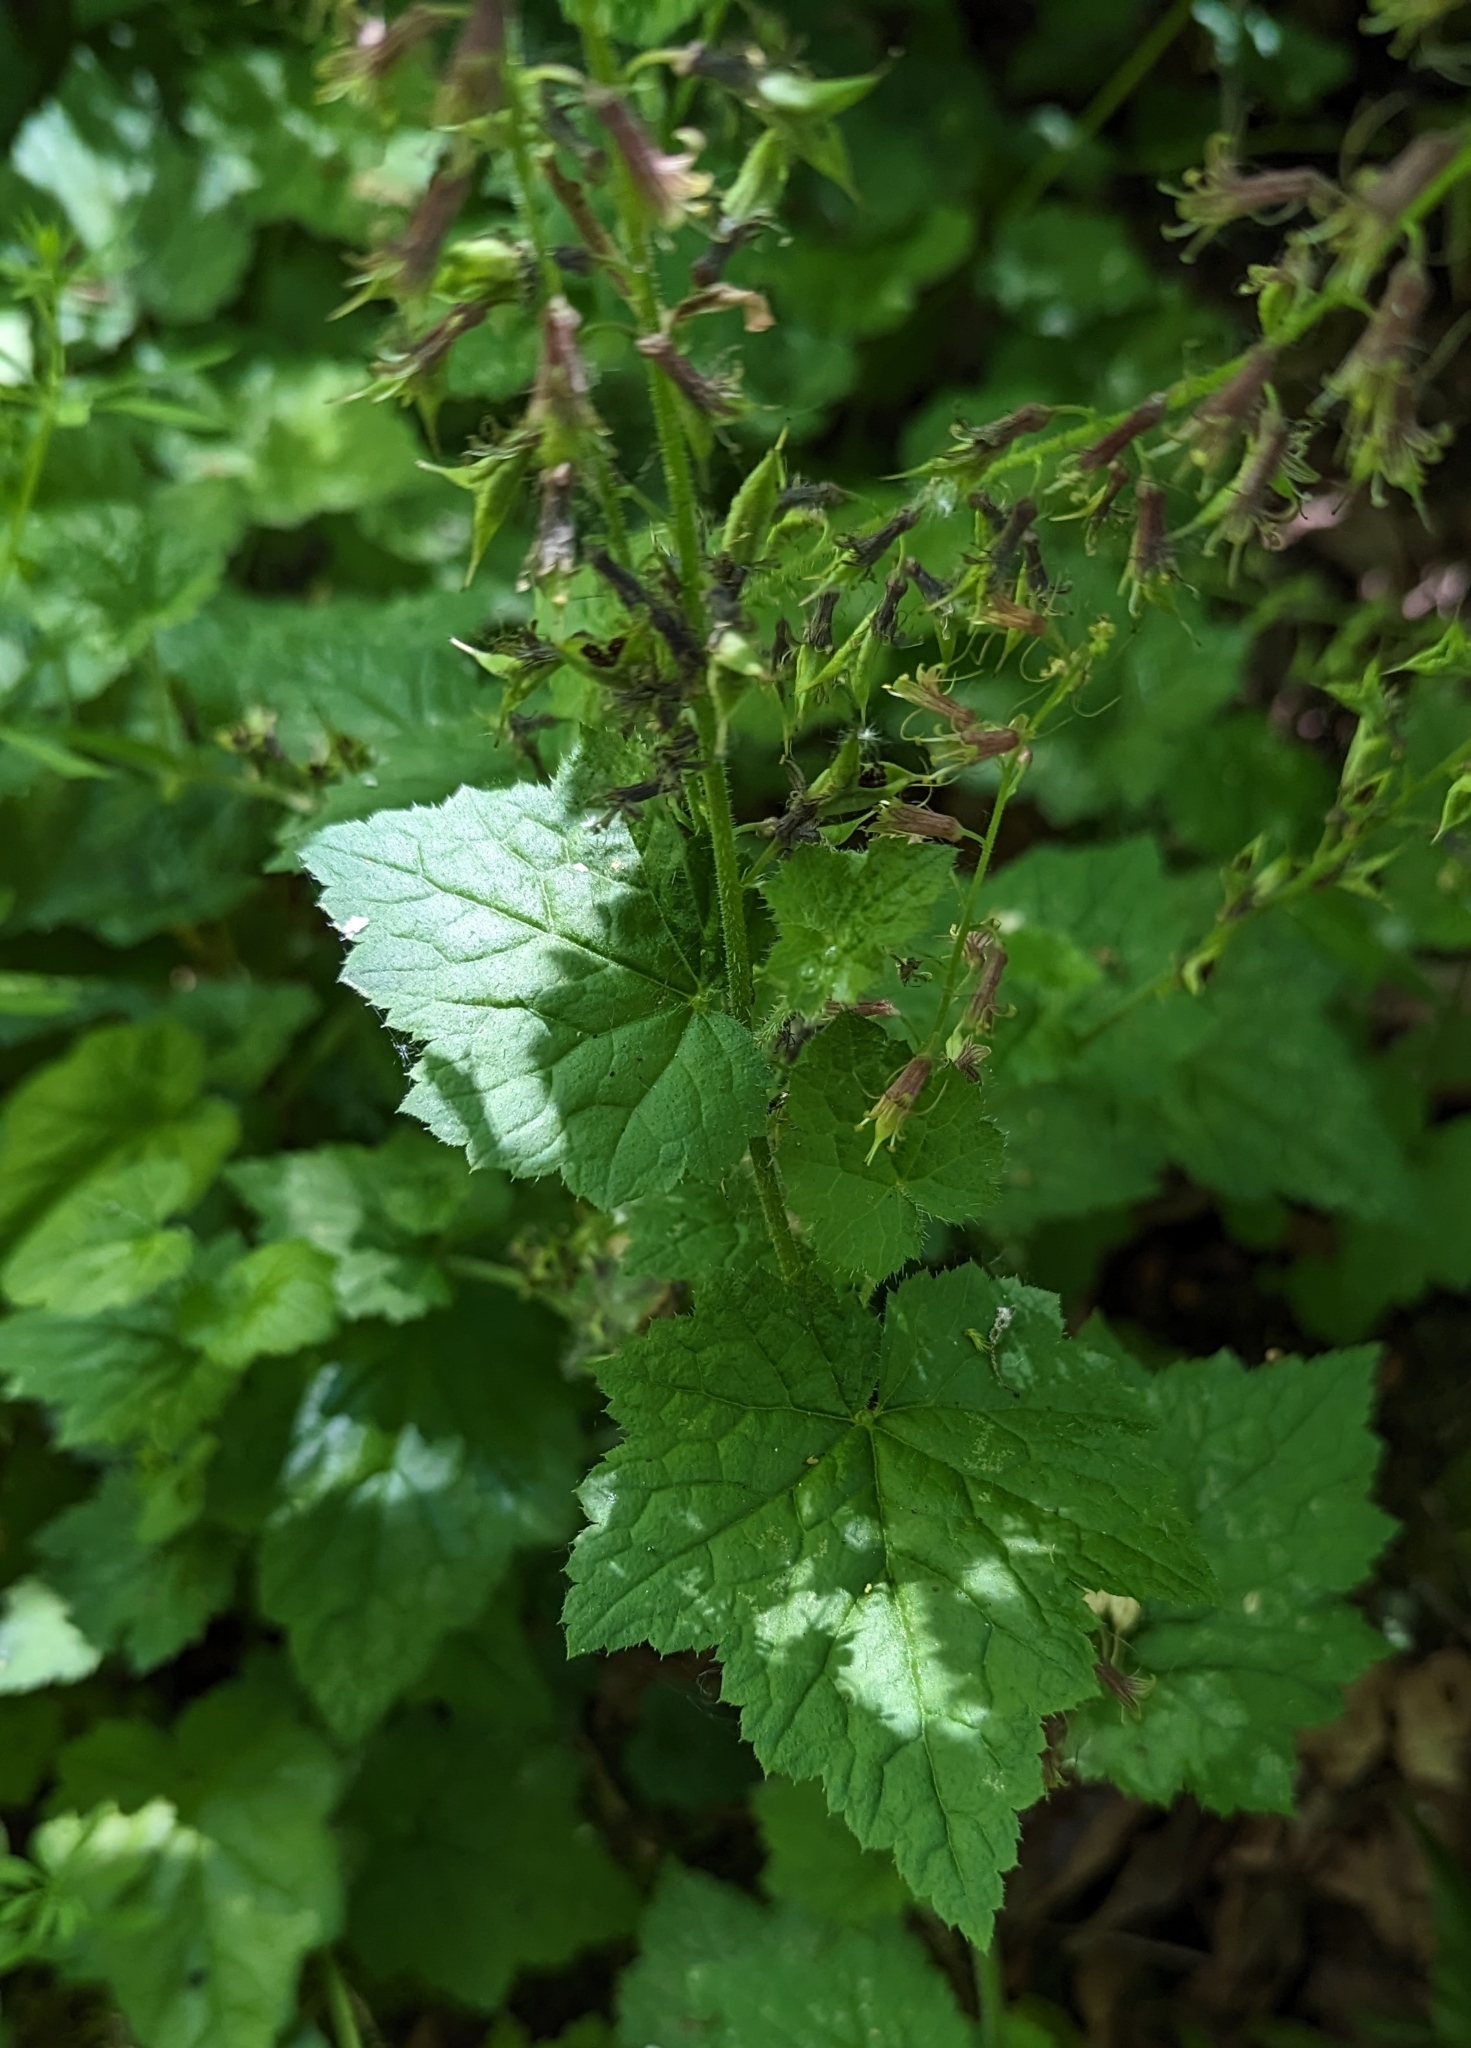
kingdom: Plantae
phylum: Tracheophyta
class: Magnoliopsida
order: Saxifragales
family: Saxifragaceae
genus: Tolmiea
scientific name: Tolmiea menziesii
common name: Pick-a-back-plant
